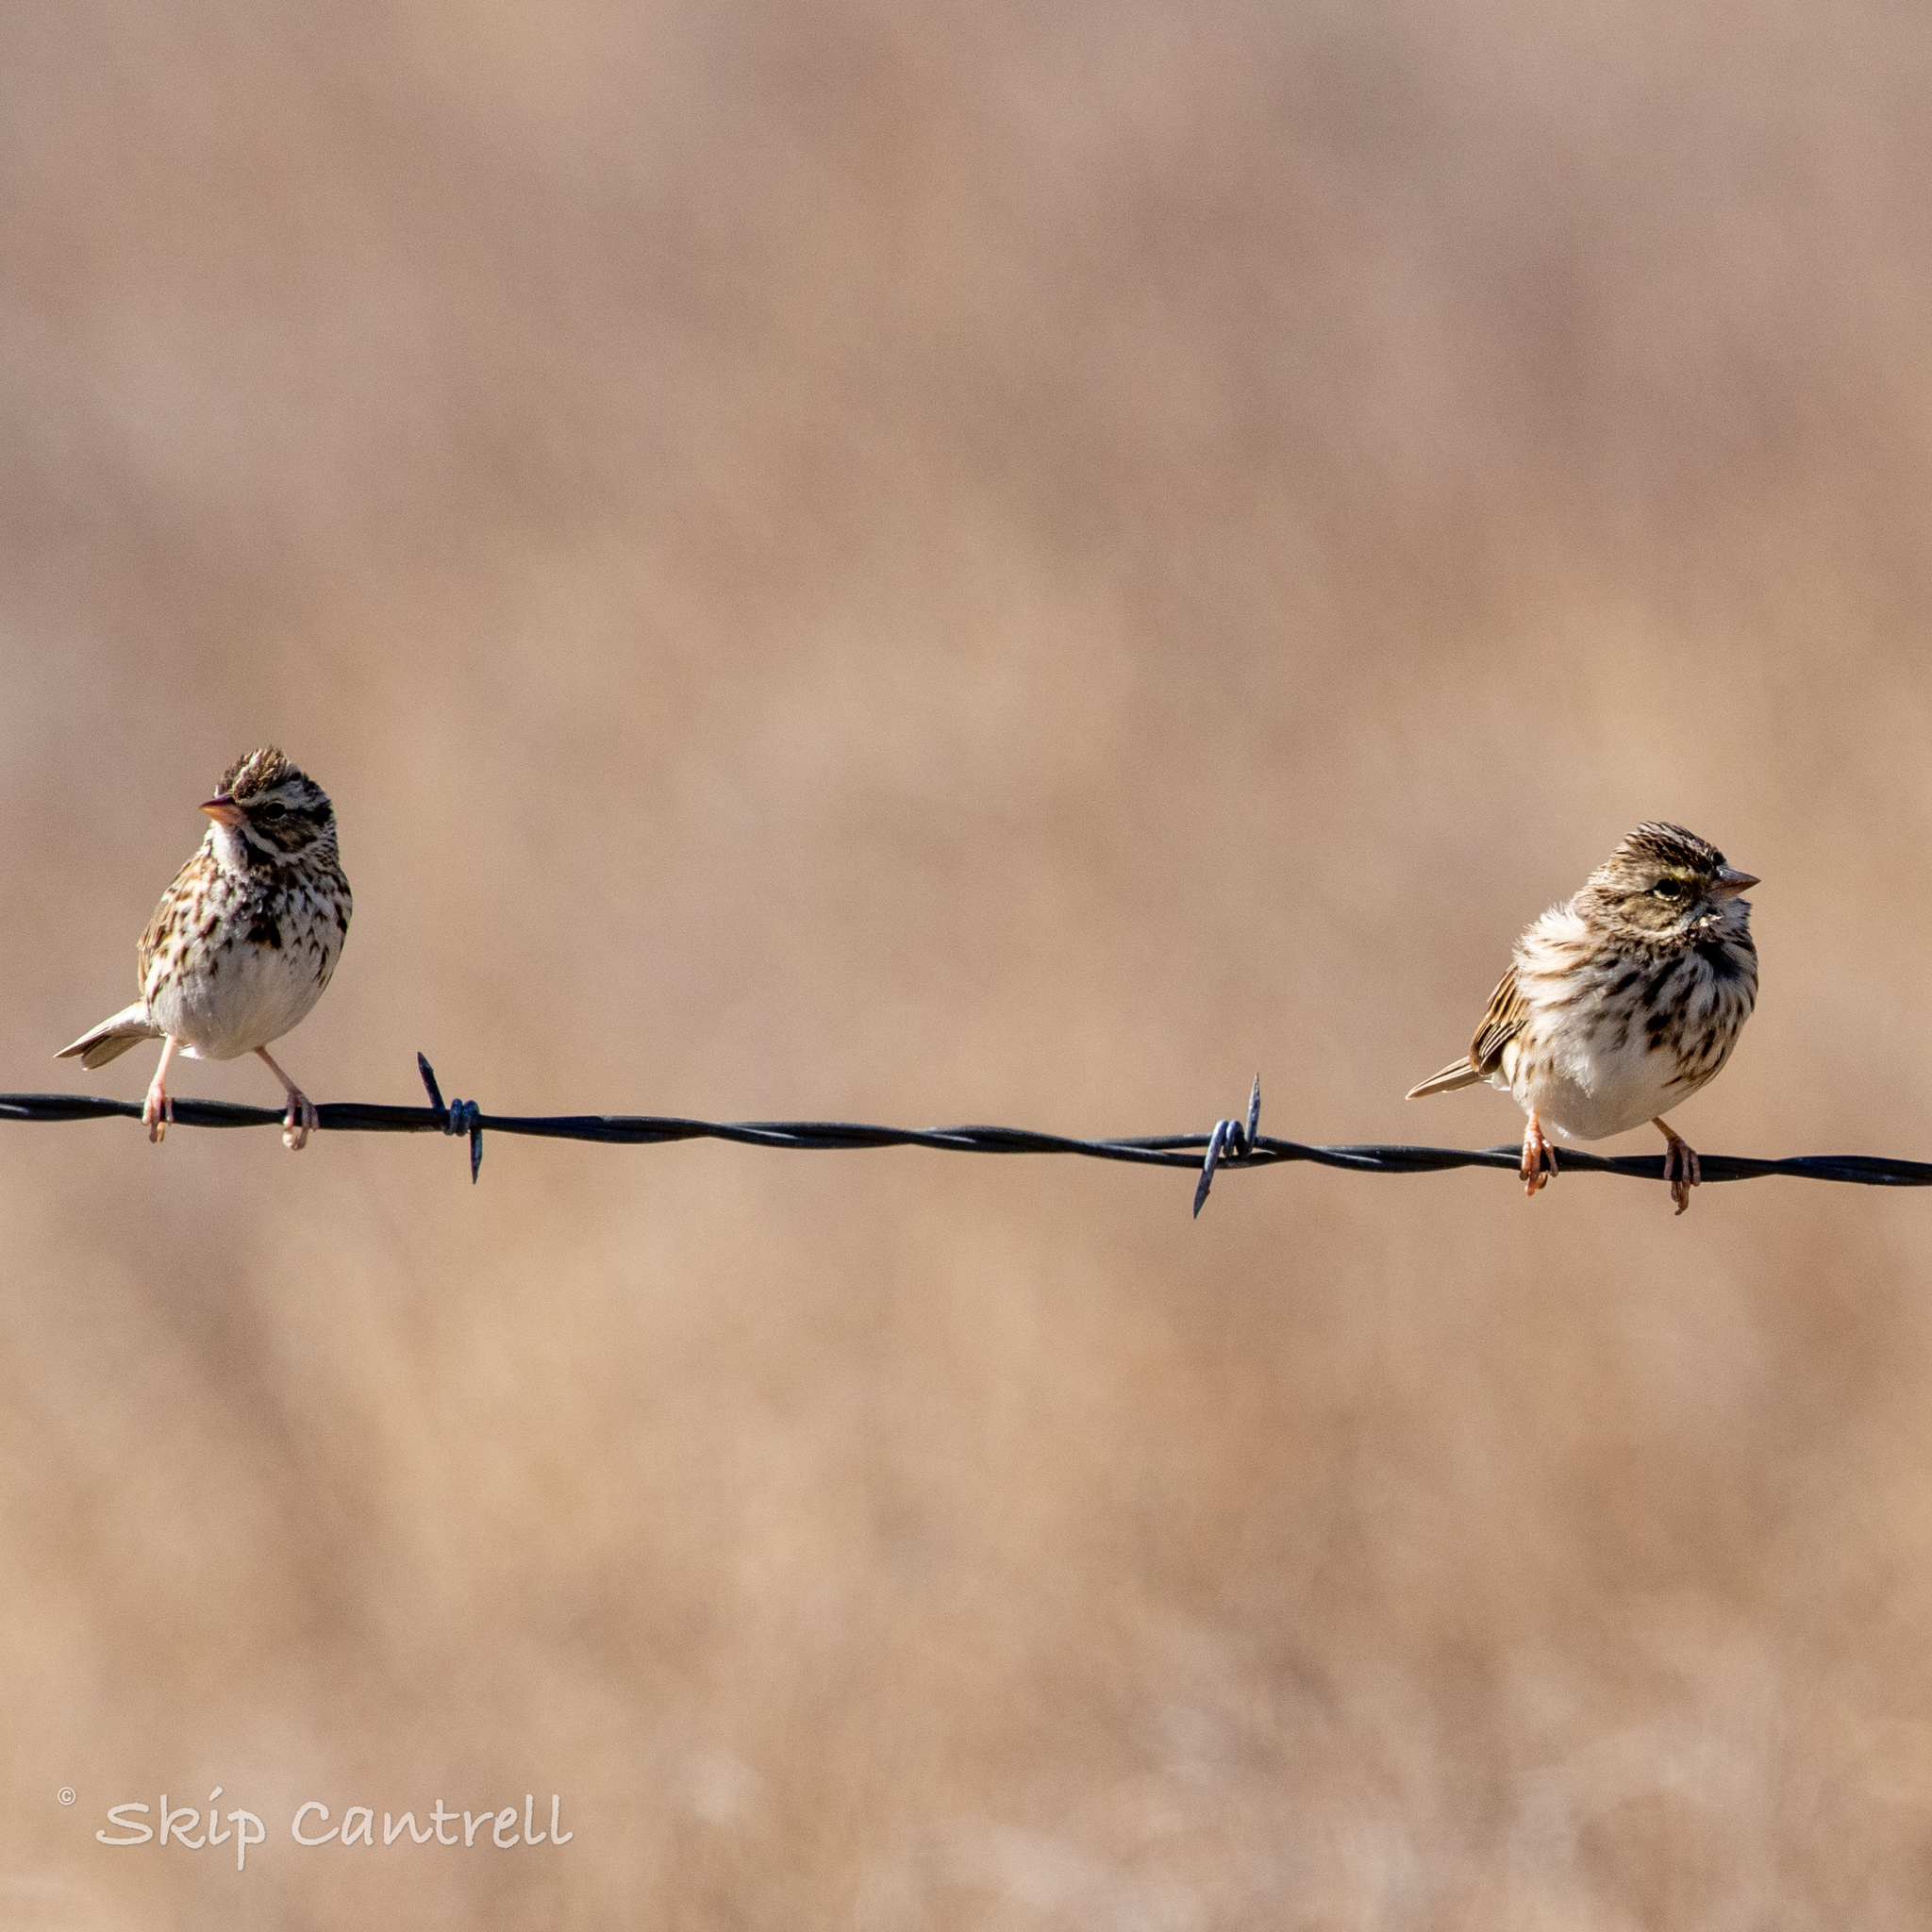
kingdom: Animalia
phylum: Chordata
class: Aves
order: Passeriformes
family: Passerellidae
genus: Passerculus
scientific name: Passerculus sandwichensis
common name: Savannah sparrow
